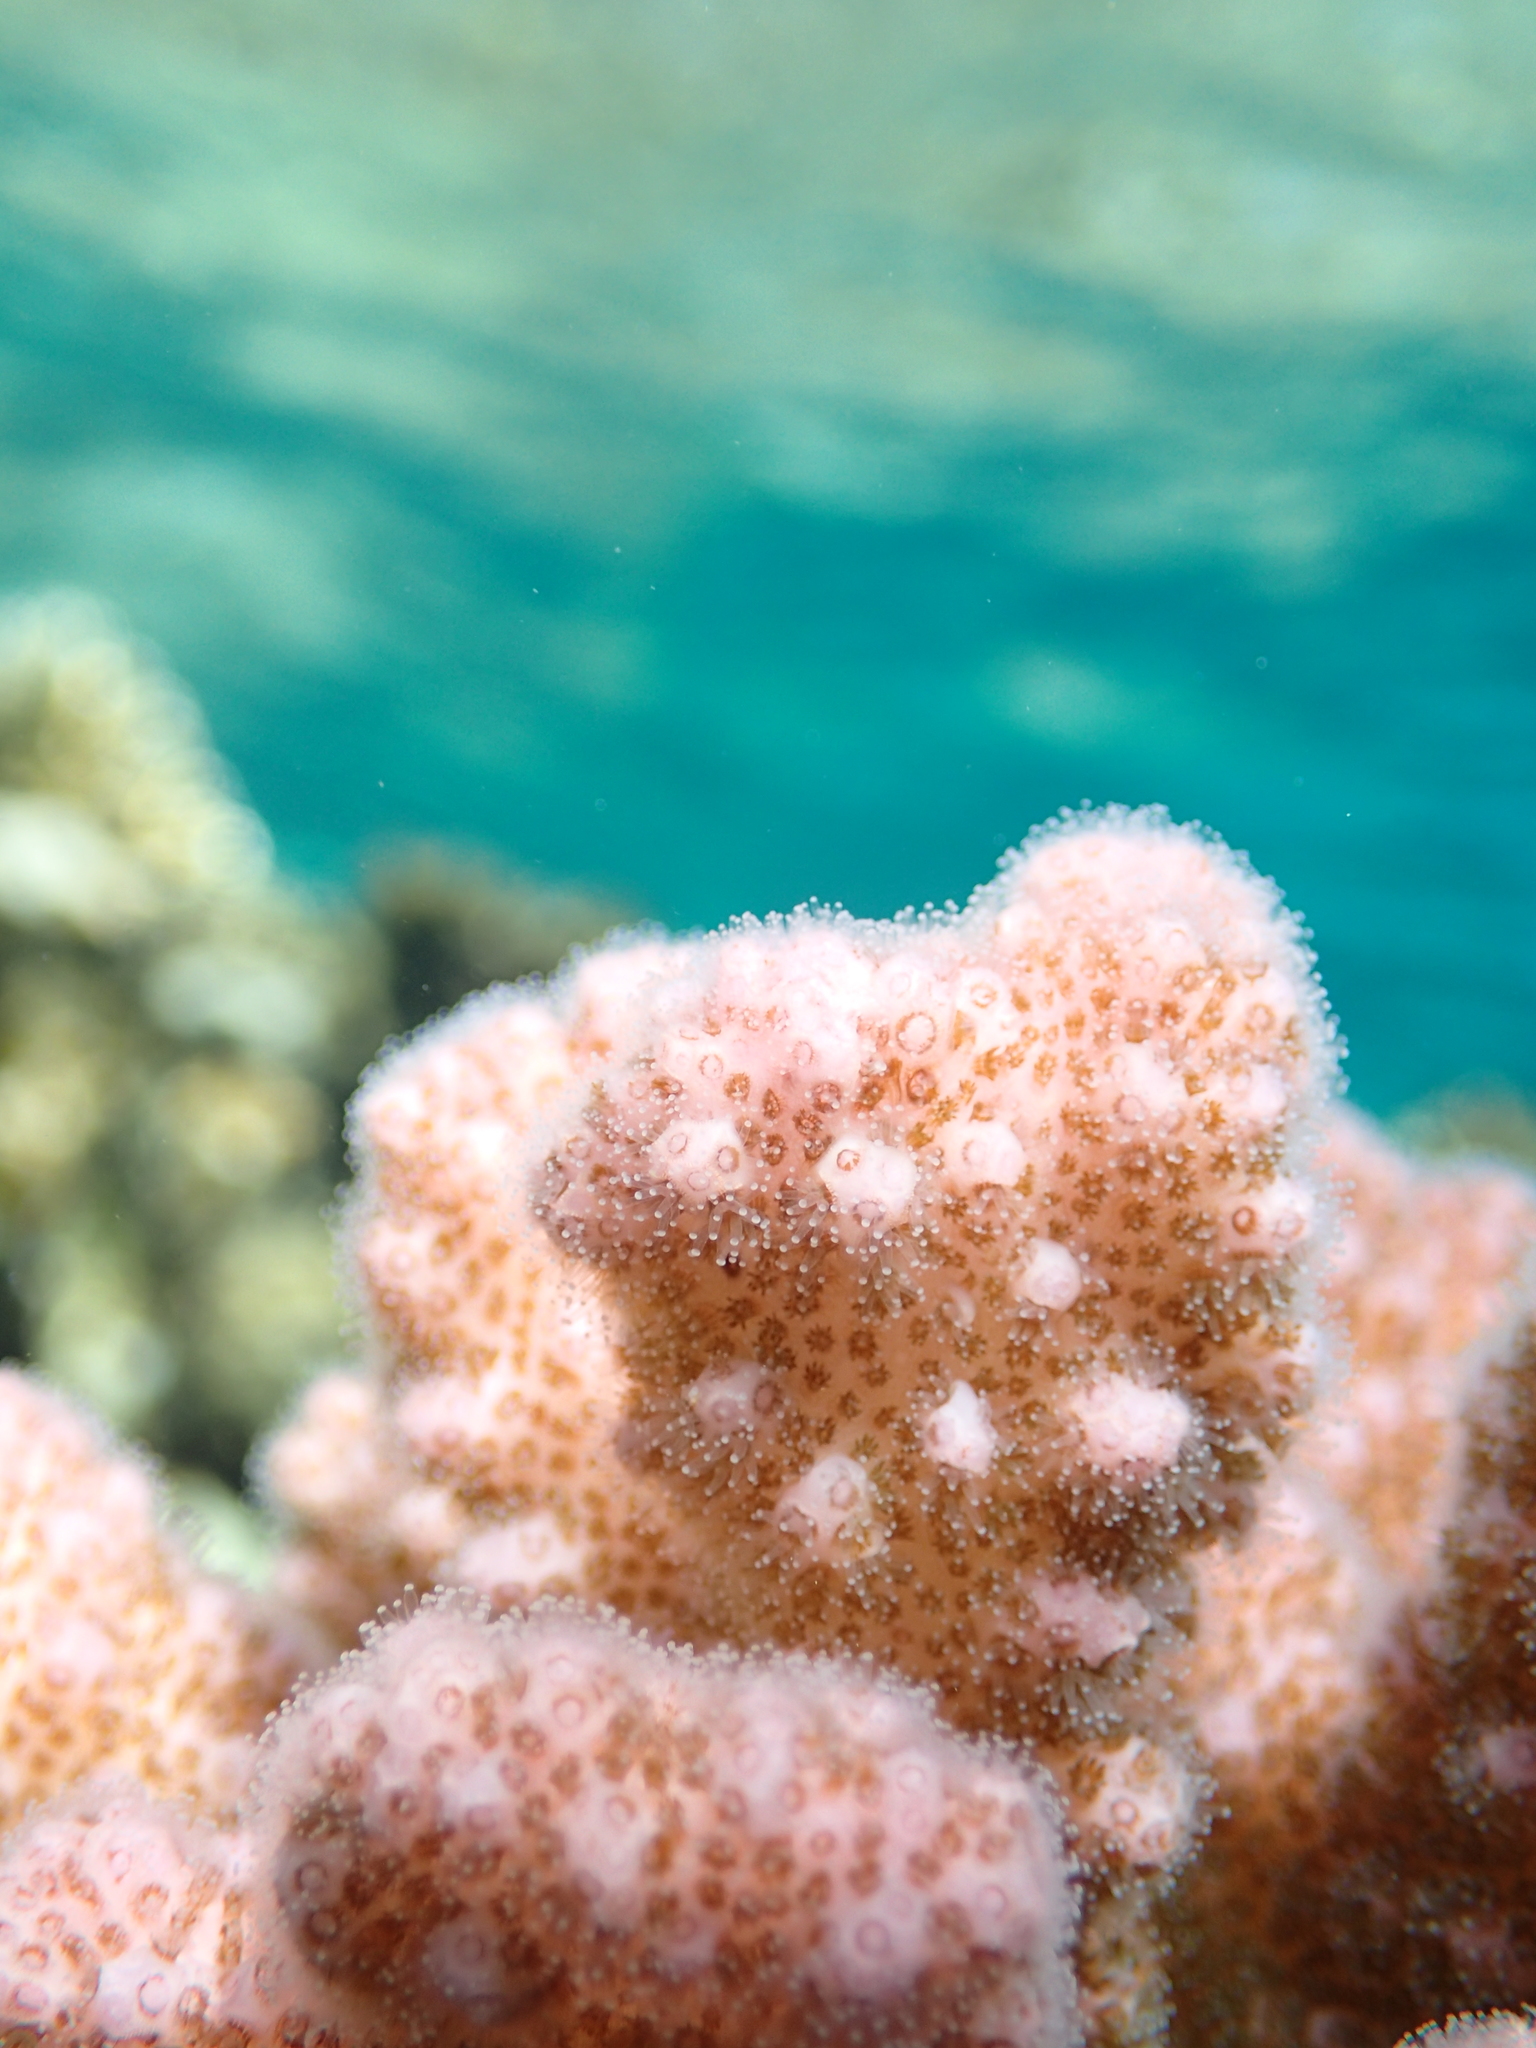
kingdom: Animalia
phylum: Cnidaria
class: Anthozoa
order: Scleractinia
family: Pocilloporidae
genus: Pocillopora
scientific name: Pocillopora verrucosa
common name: Cauliflower coral
